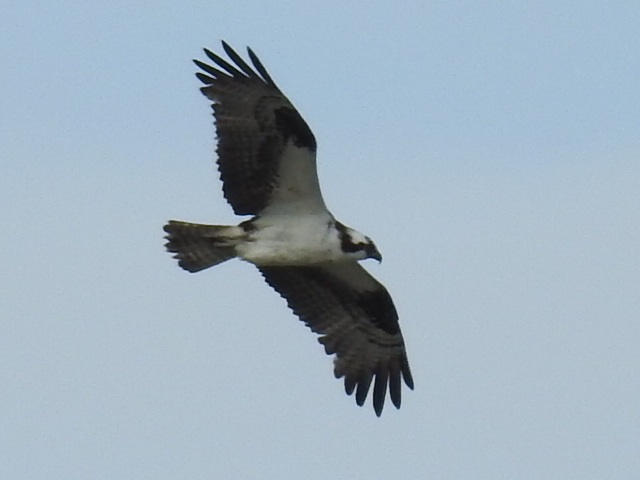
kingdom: Animalia
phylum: Chordata
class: Aves
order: Accipitriformes
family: Pandionidae
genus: Pandion
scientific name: Pandion haliaetus
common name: Osprey
